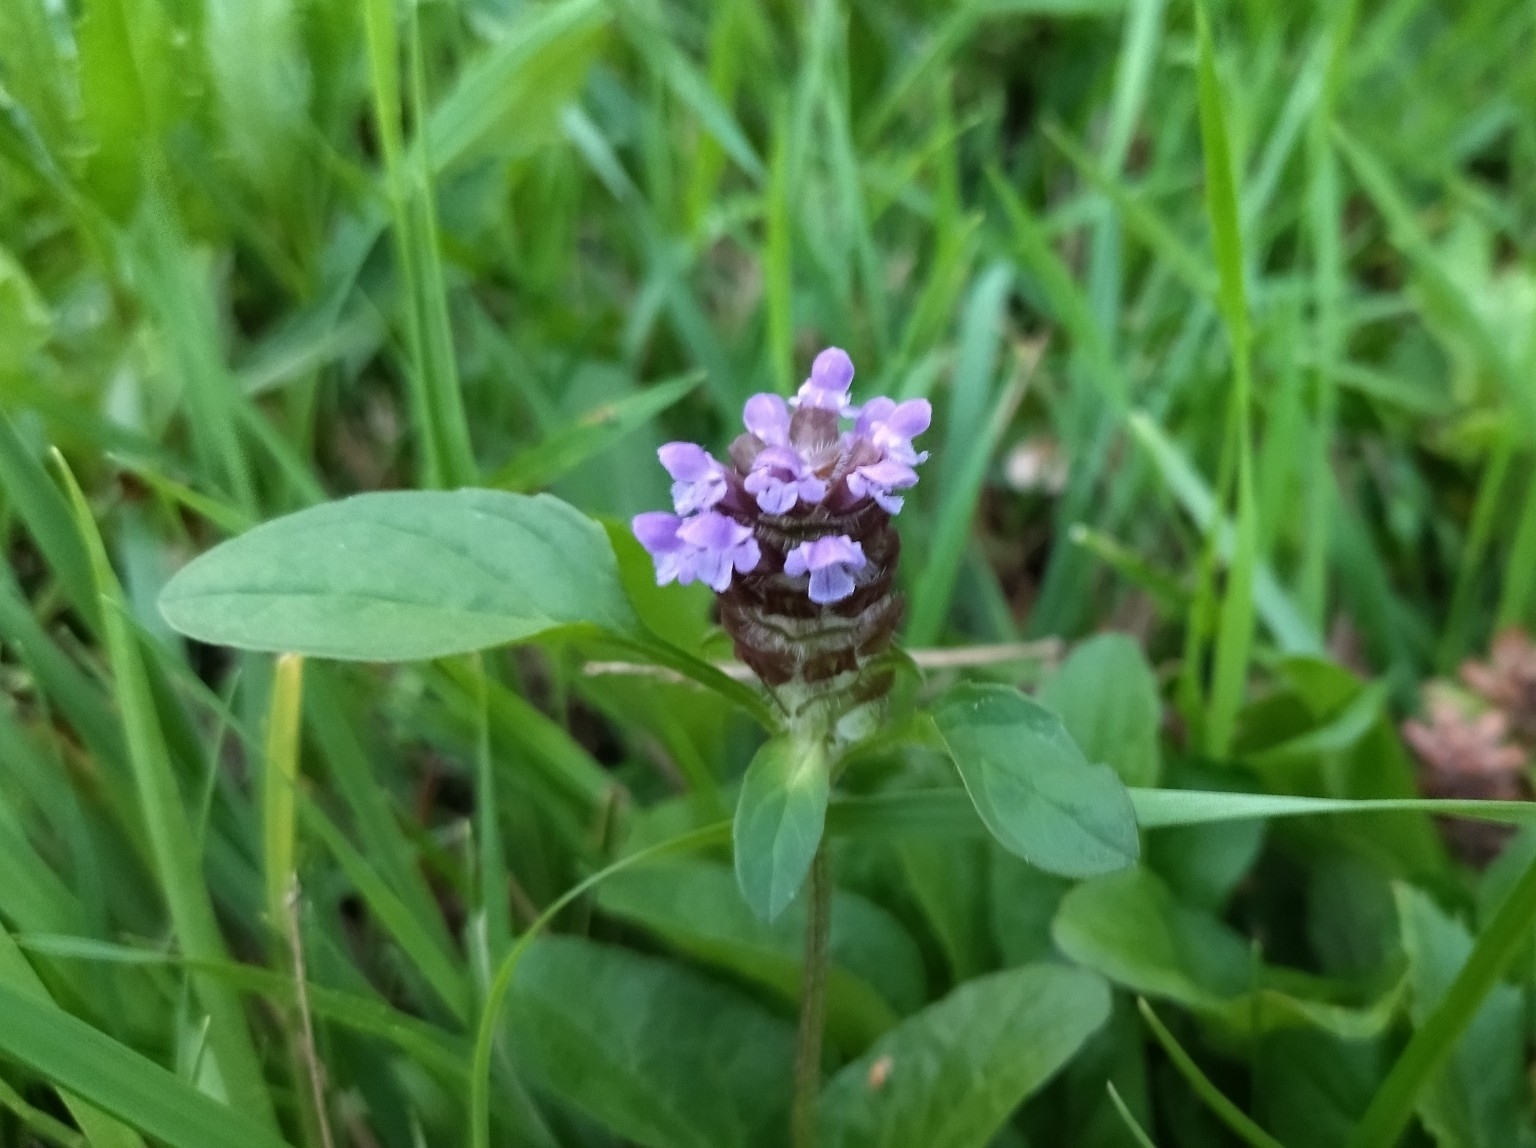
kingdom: Plantae
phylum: Tracheophyta
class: Magnoliopsida
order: Lamiales
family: Lamiaceae
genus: Prunella
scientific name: Prunella vulgaris
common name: Heal-all
